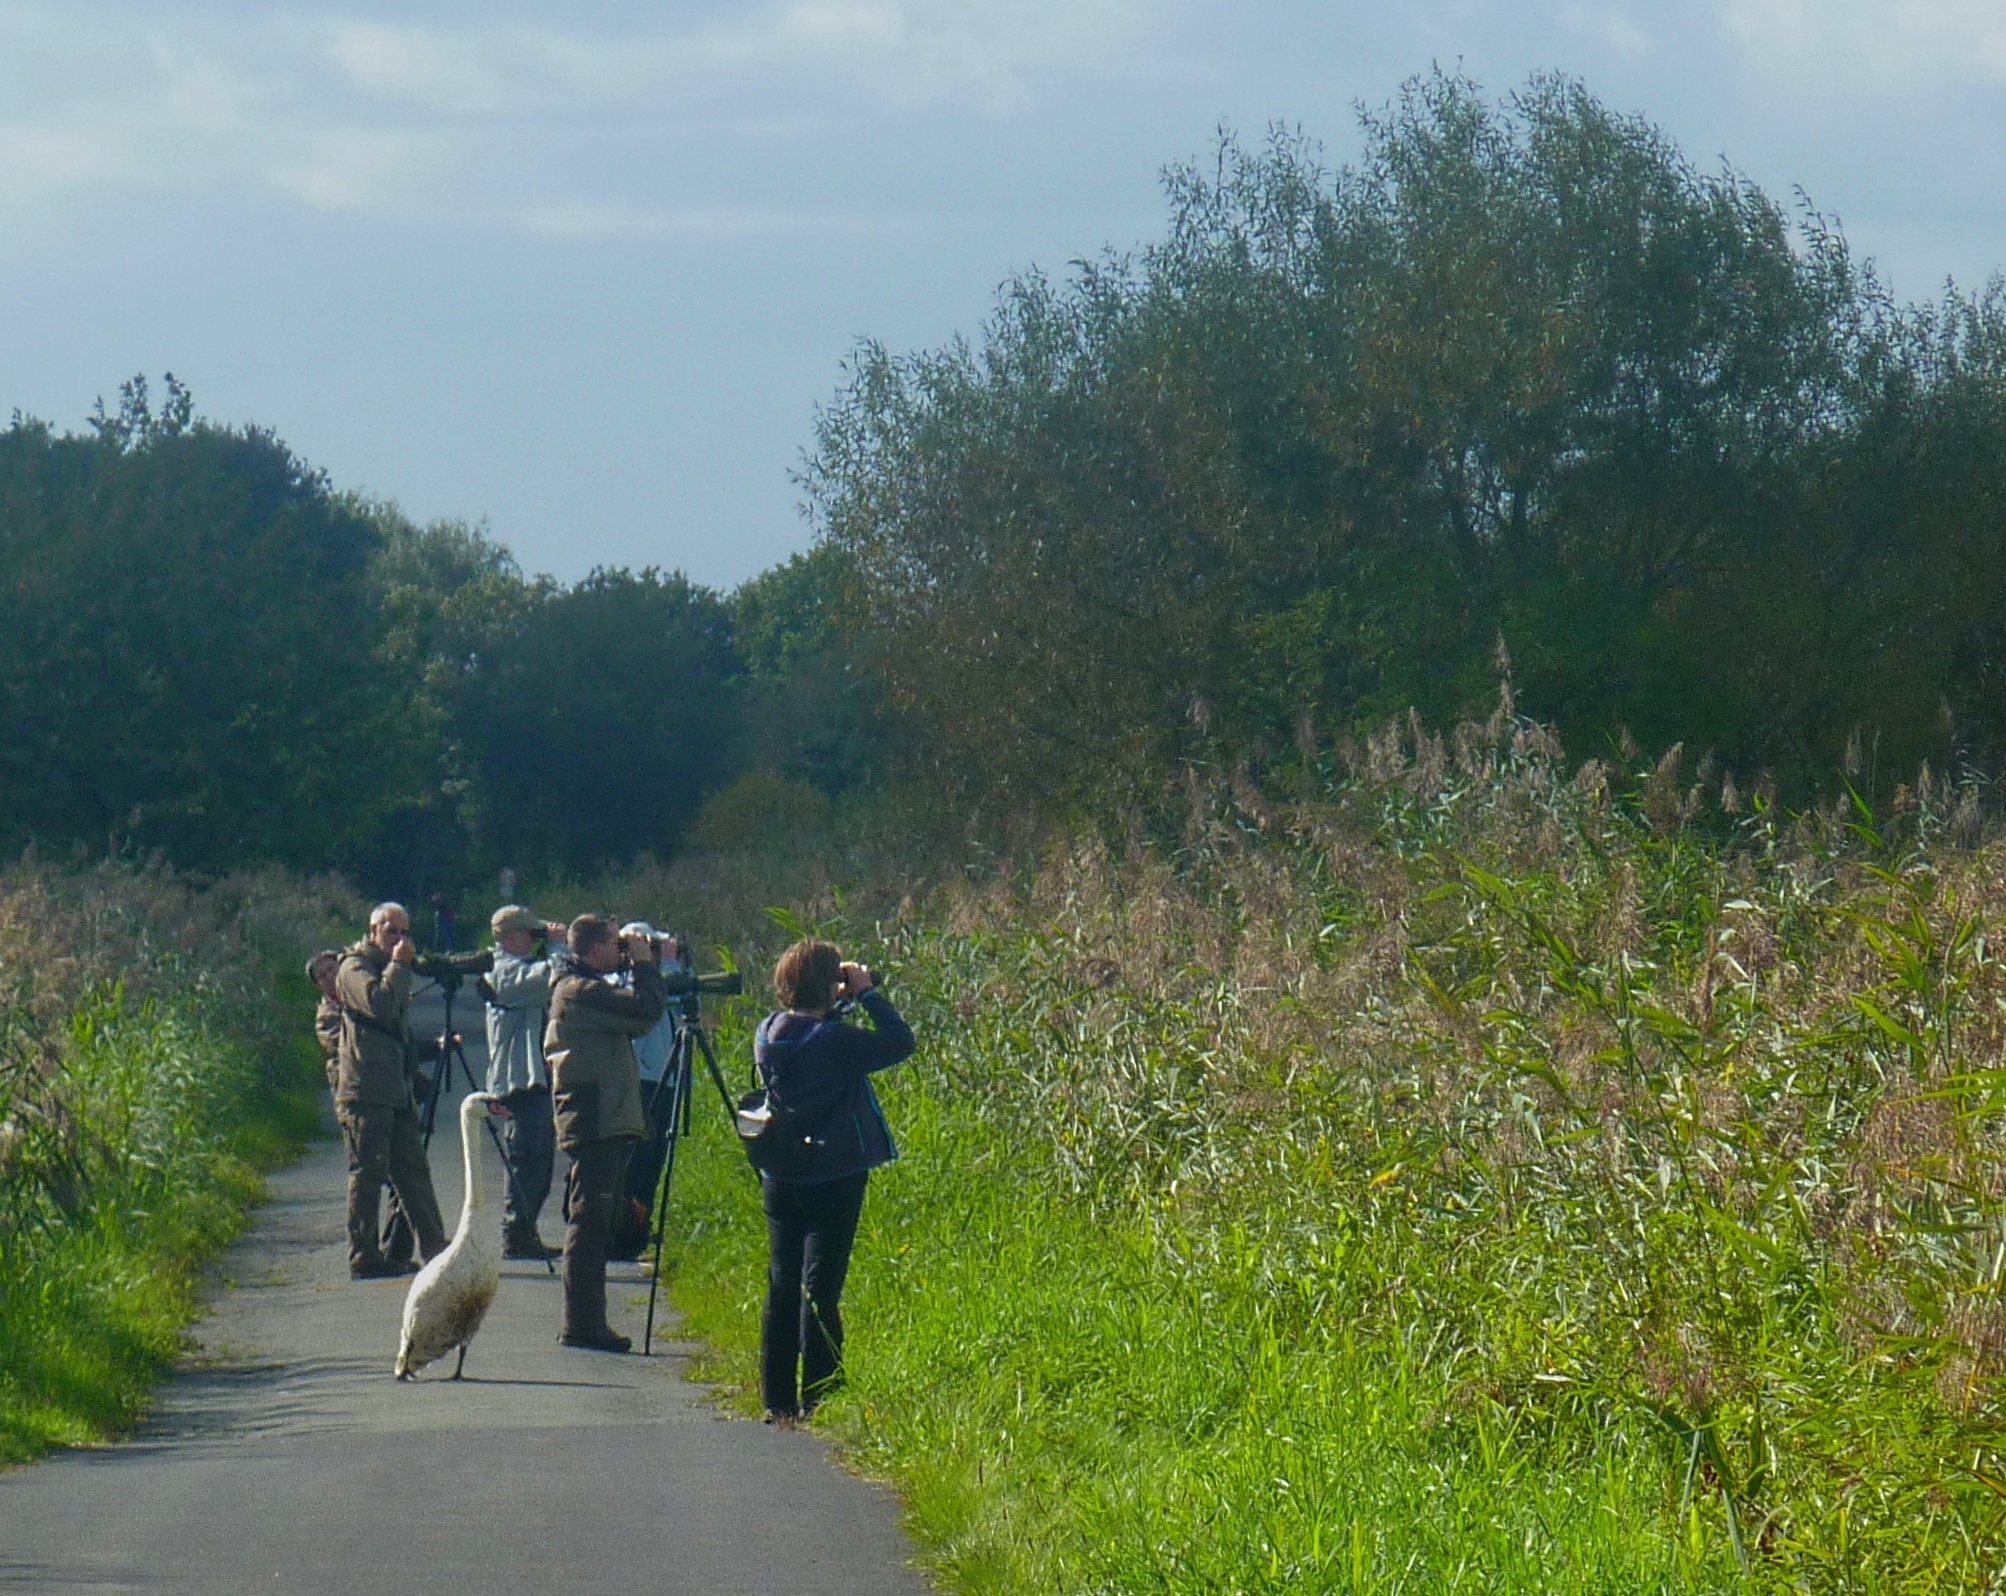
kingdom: Animalia
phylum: Chordata
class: Aves
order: Anseriformes
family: Anatidae
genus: Cygnus
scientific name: Cygnus olor
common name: Mute swan
